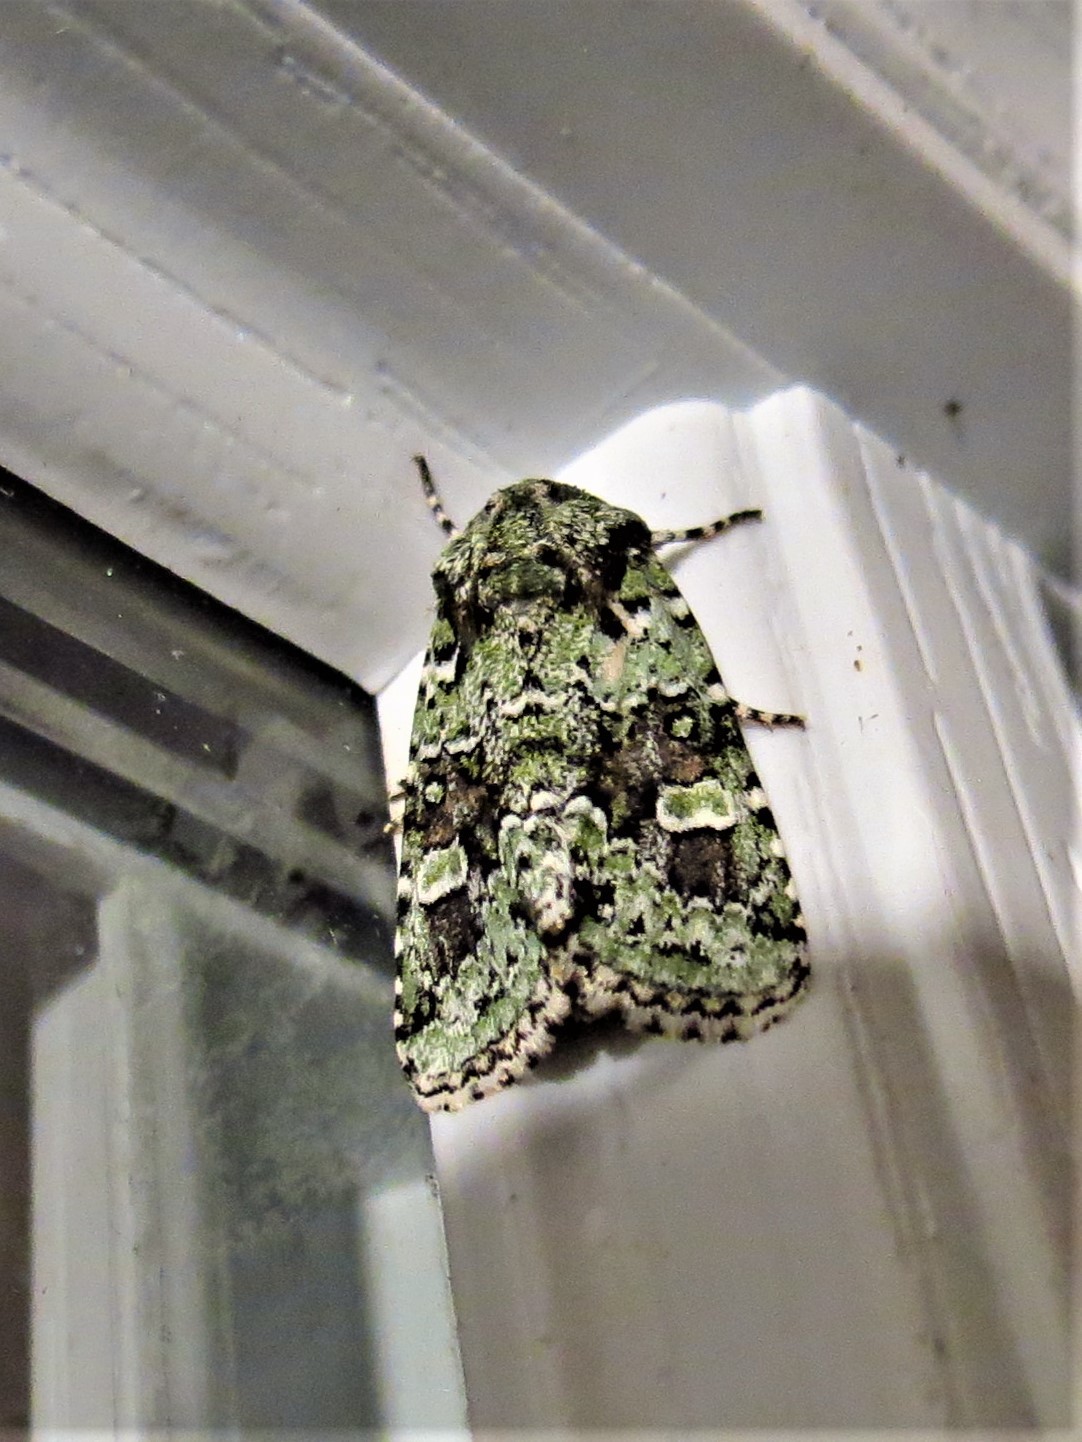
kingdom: Animalia
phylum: Arthropoda
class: Insecta
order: Lepidoptera
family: Noctuidae
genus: Lacinipolia
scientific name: Lacinipolia laudabilis
